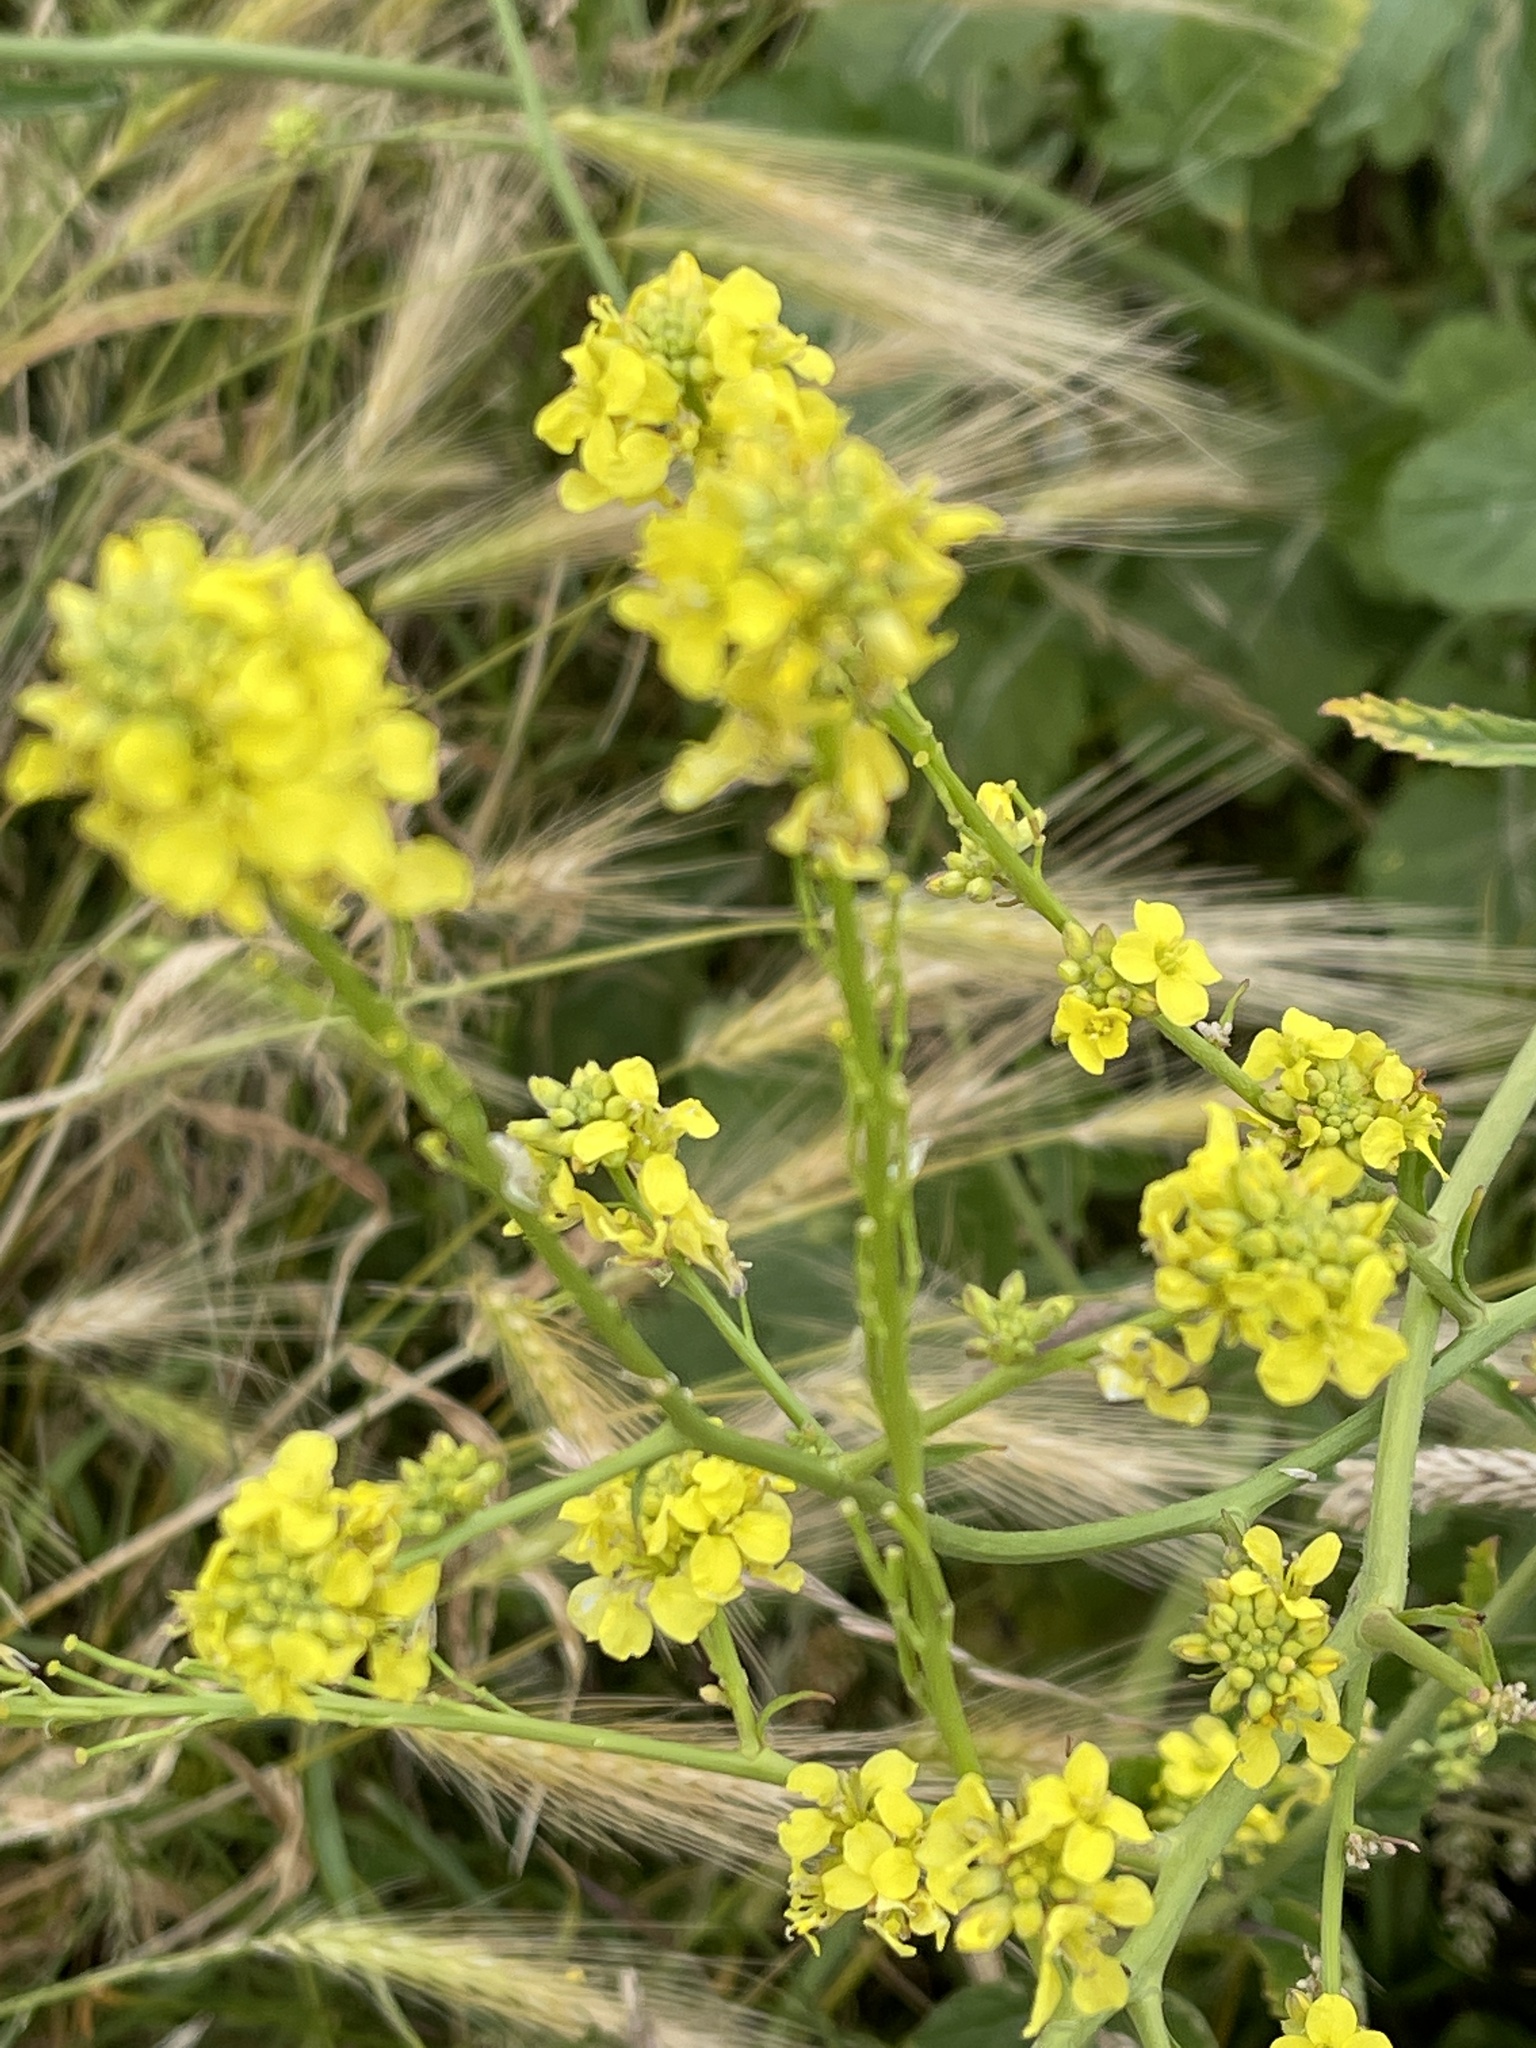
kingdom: Plantae
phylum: Tracheophyta
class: Magnoliopsida
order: Brassicales
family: Brassicaceae
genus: Hirschfeldia
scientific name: Hirschfeldia incana
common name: Hoary mustard
